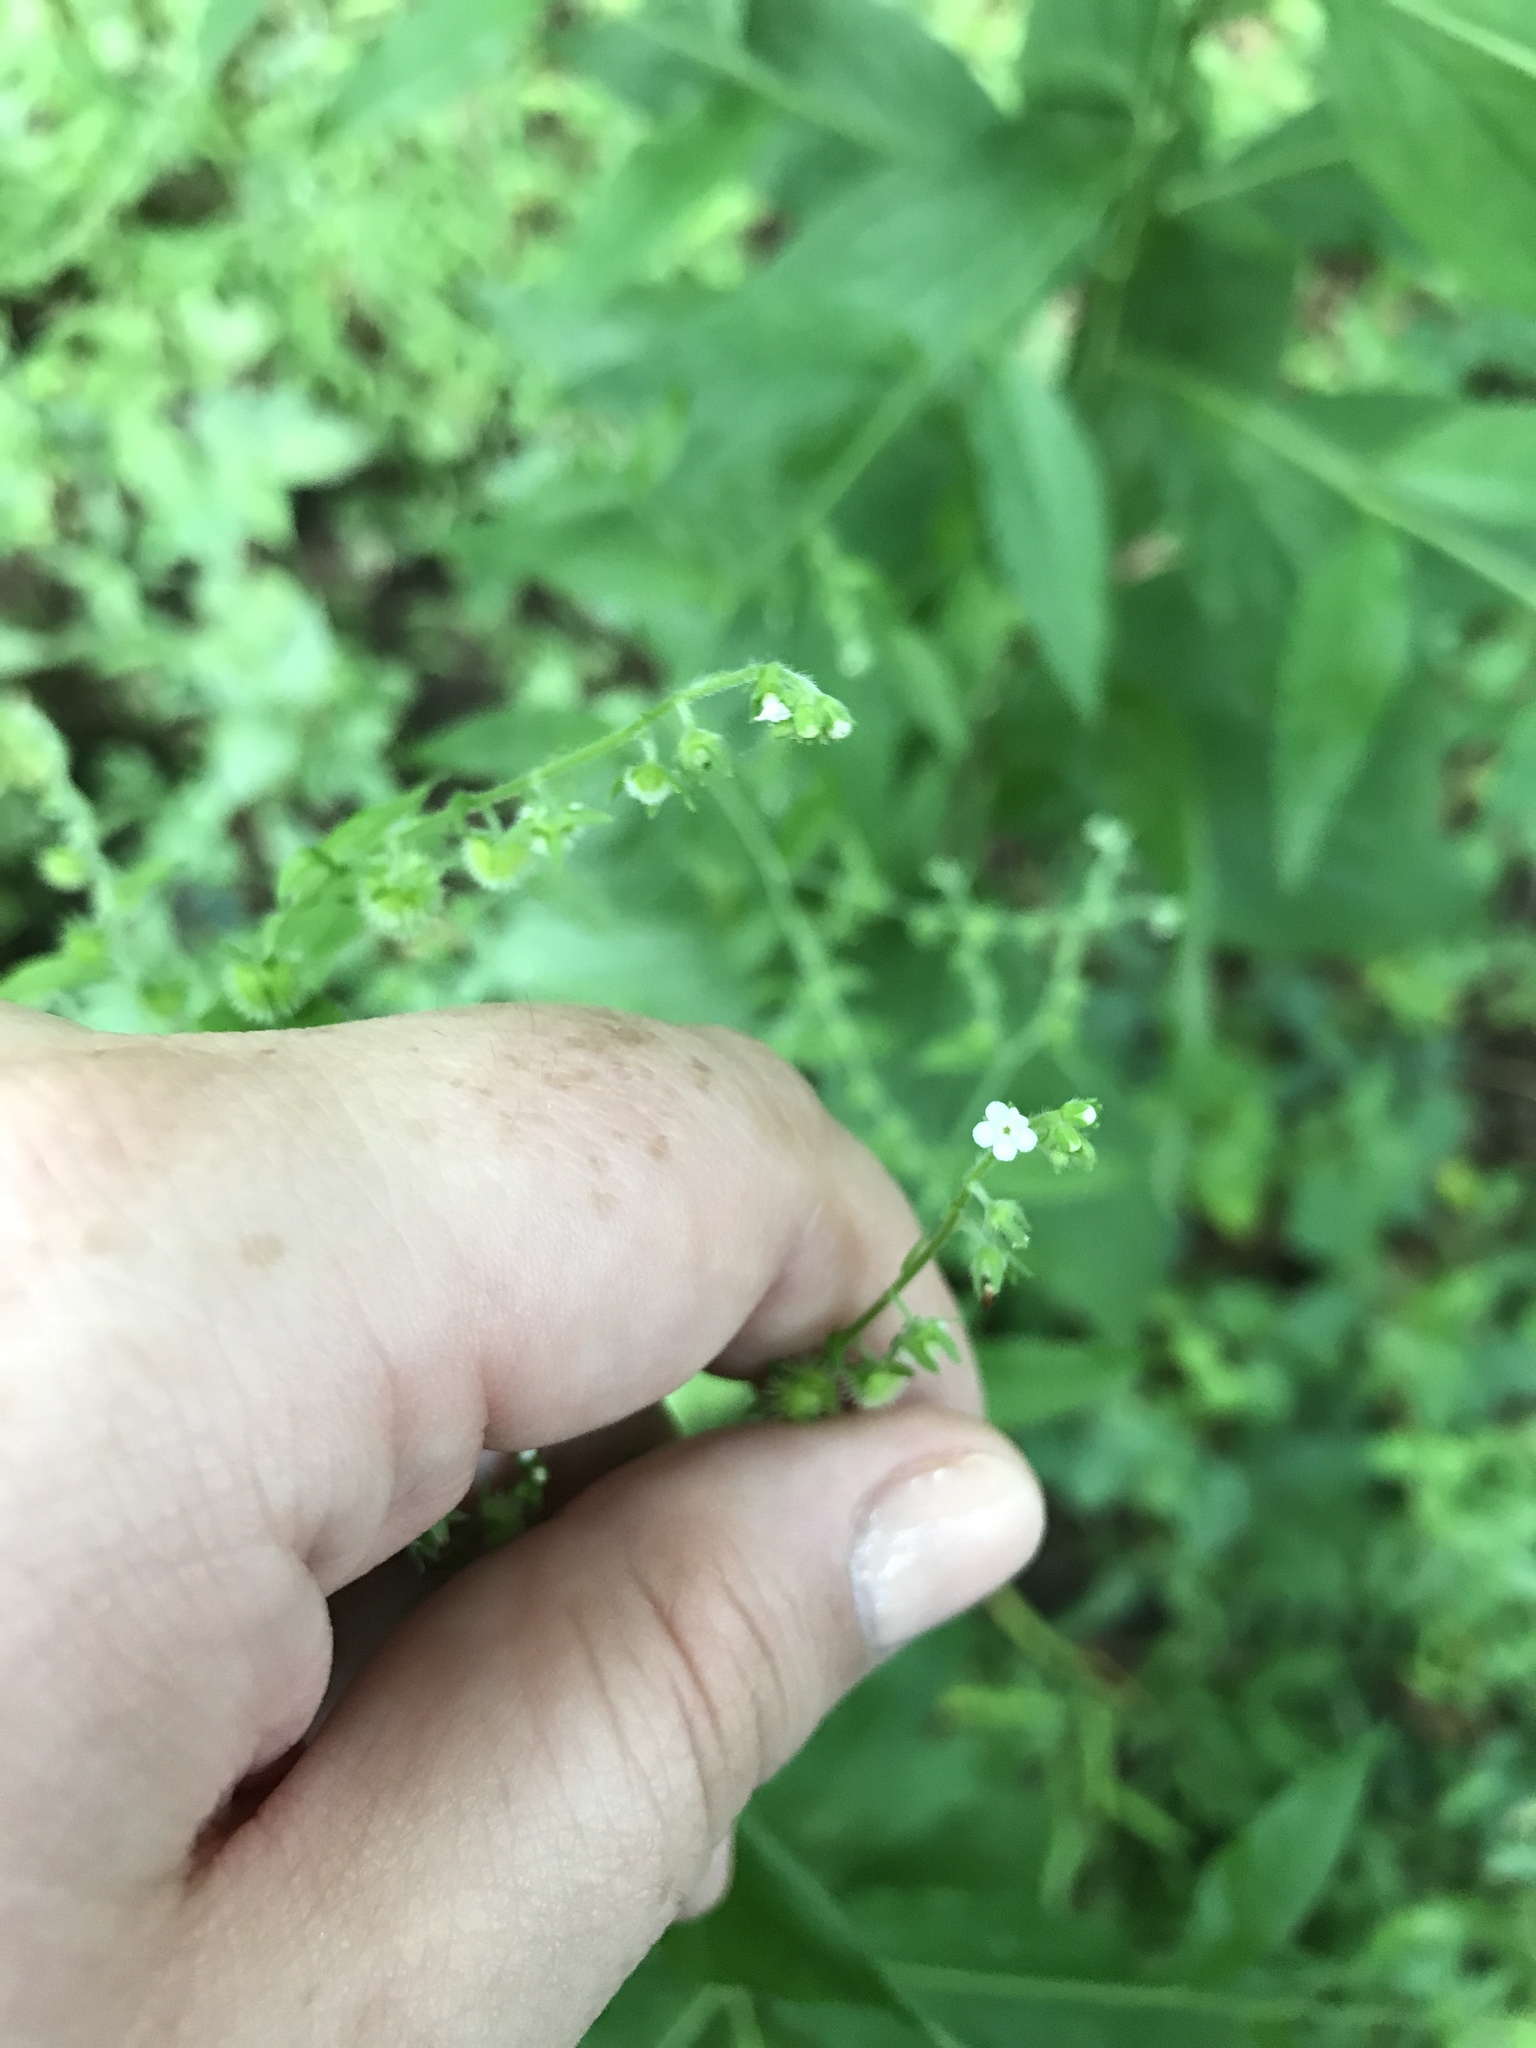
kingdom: Plantae
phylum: Tracheophyta
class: Magnoliopsida
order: Boraginales
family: Boraginaceae
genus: Hackelia
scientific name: Hackelia virginiana
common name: Beggar's-lice
